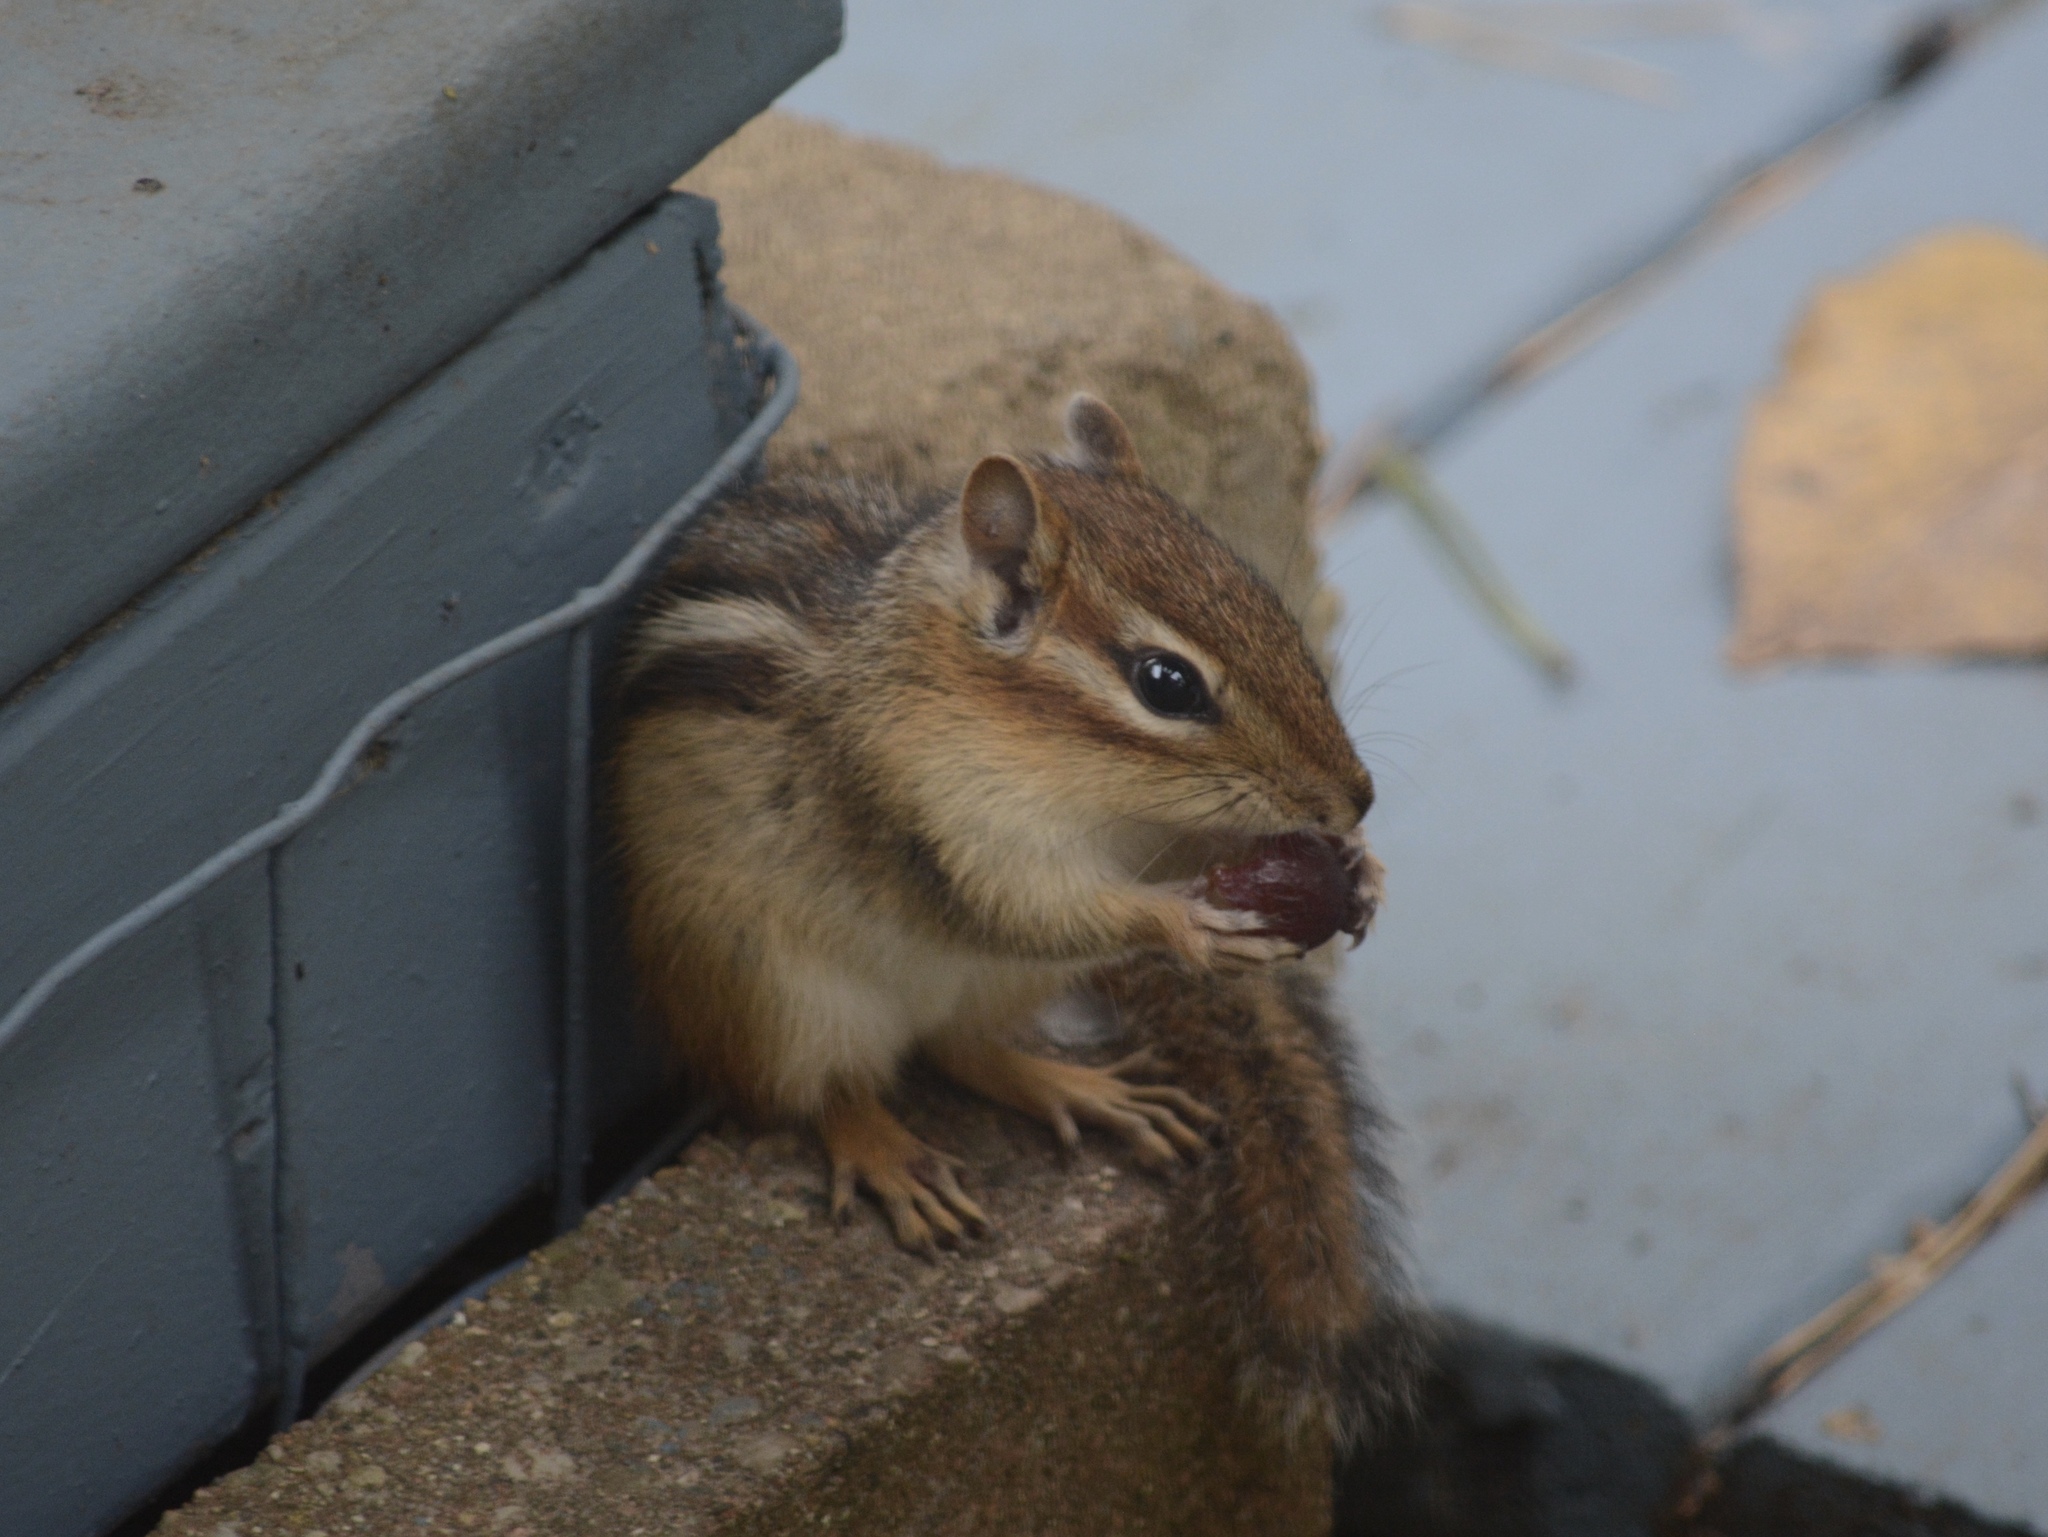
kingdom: Animalia
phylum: Chordata
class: Mammalia
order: Rodentia
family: Sciuridae
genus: Tamias
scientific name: Tamias striatus
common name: Eastern chipmunk
